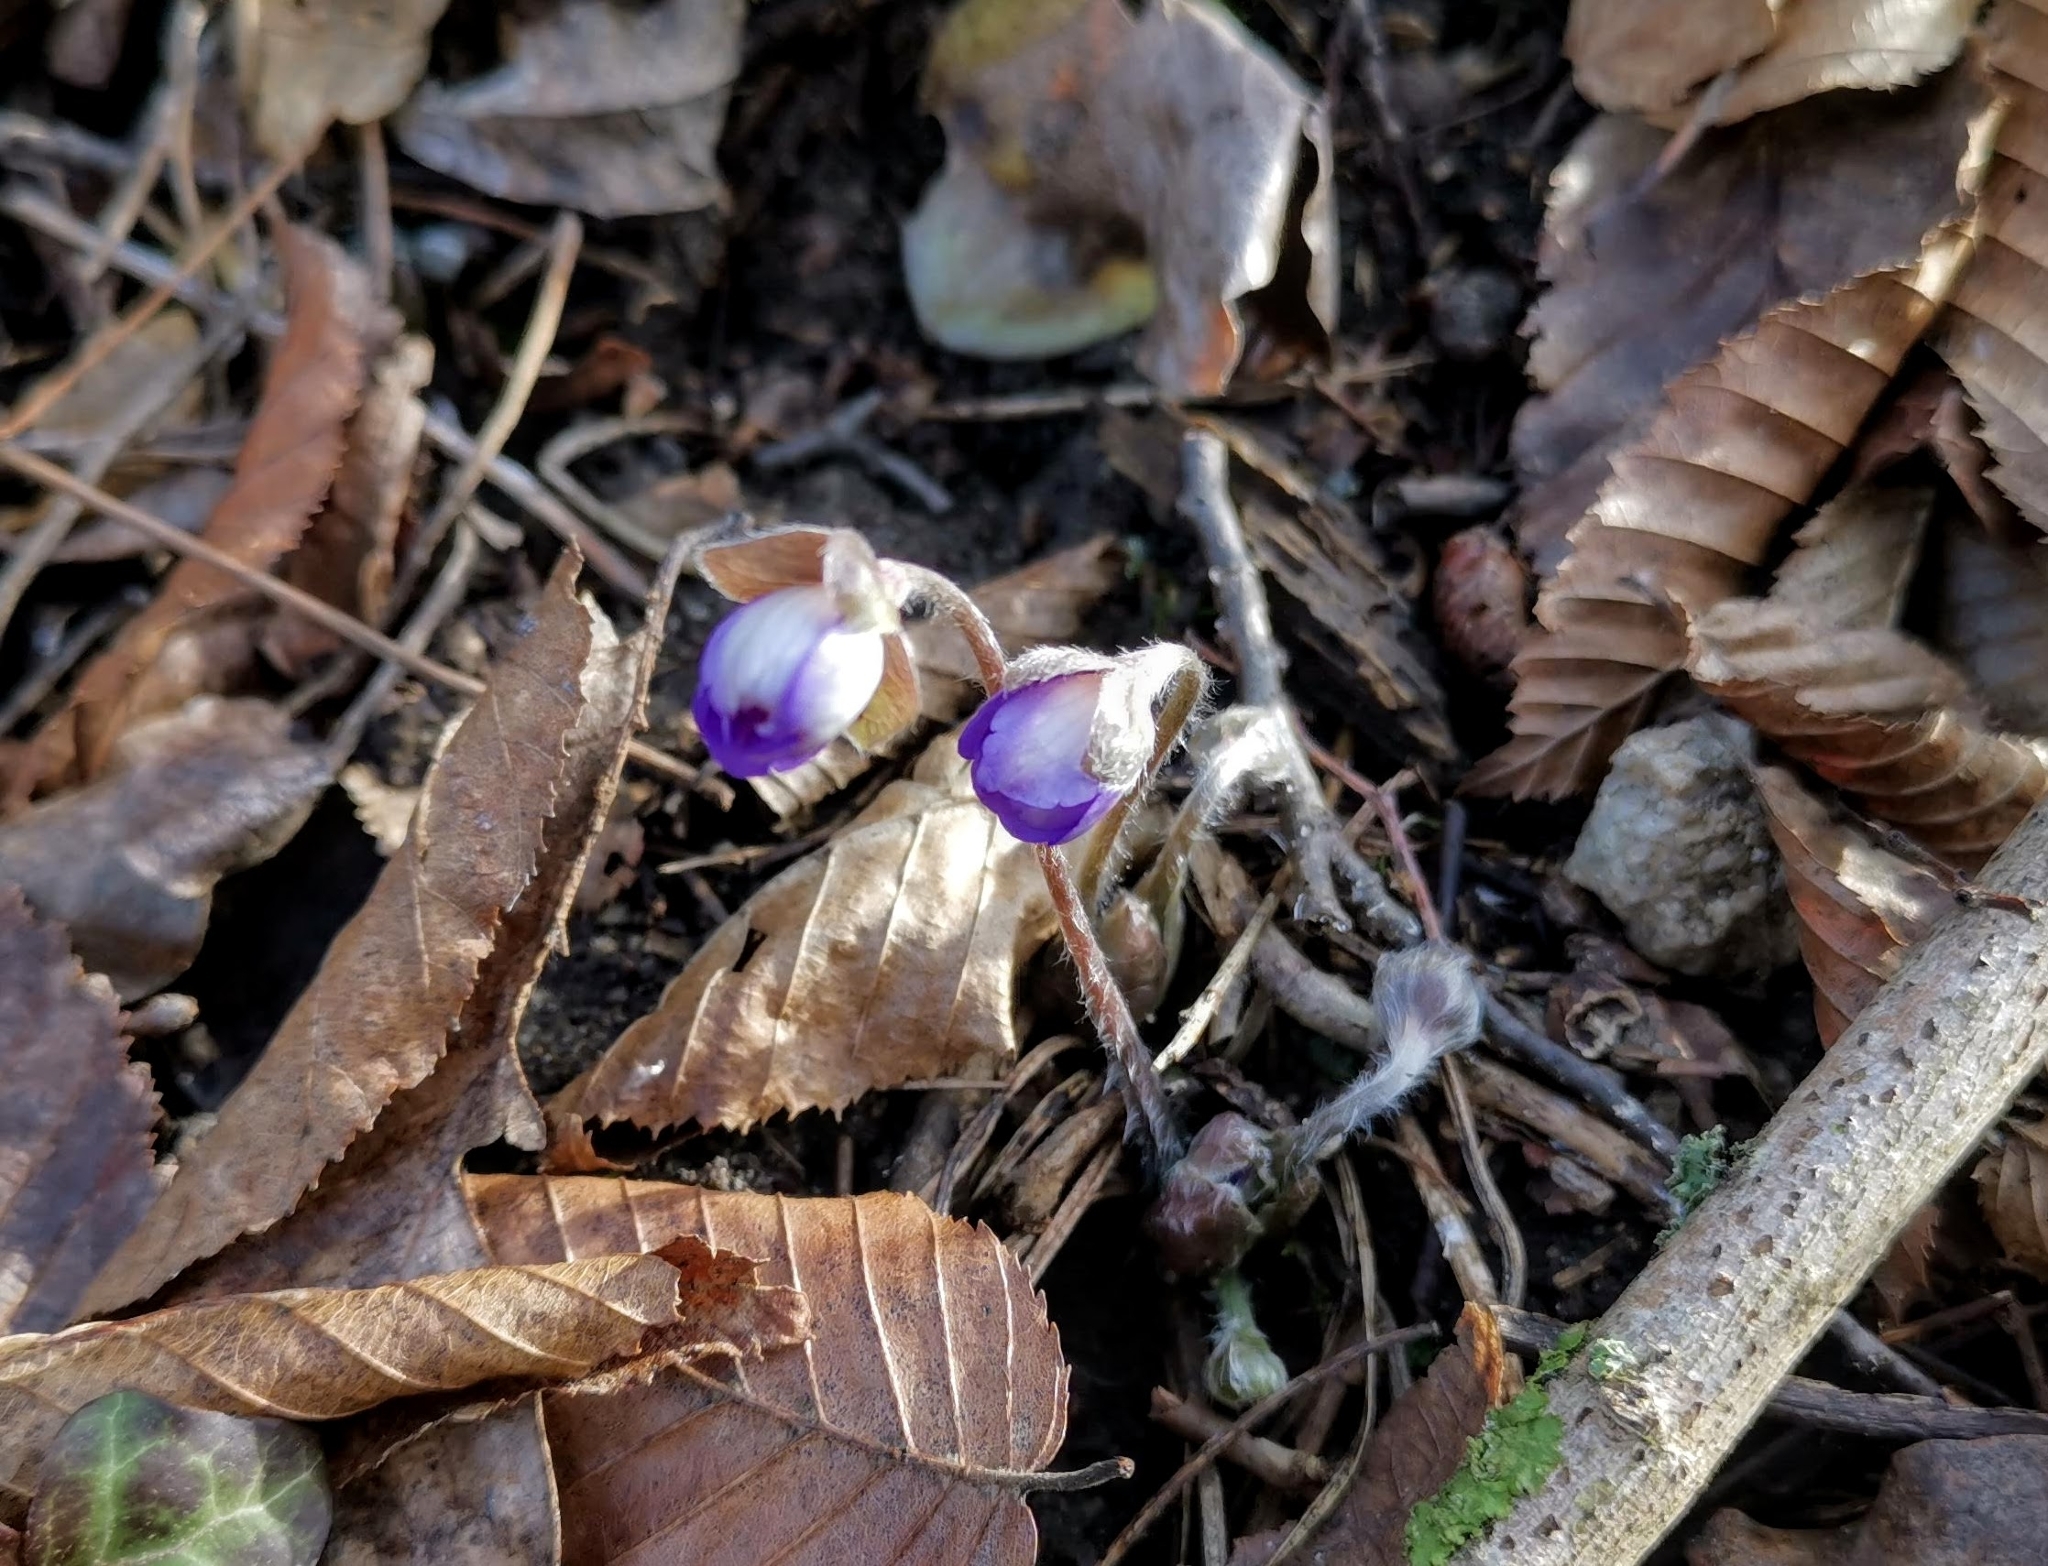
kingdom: Plantae
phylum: Tracheophyta
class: Magnoliopsida
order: Ranunculales
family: Ranunculaceae
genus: Hepatica
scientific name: Hepatica nobilis
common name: Liverleaf
